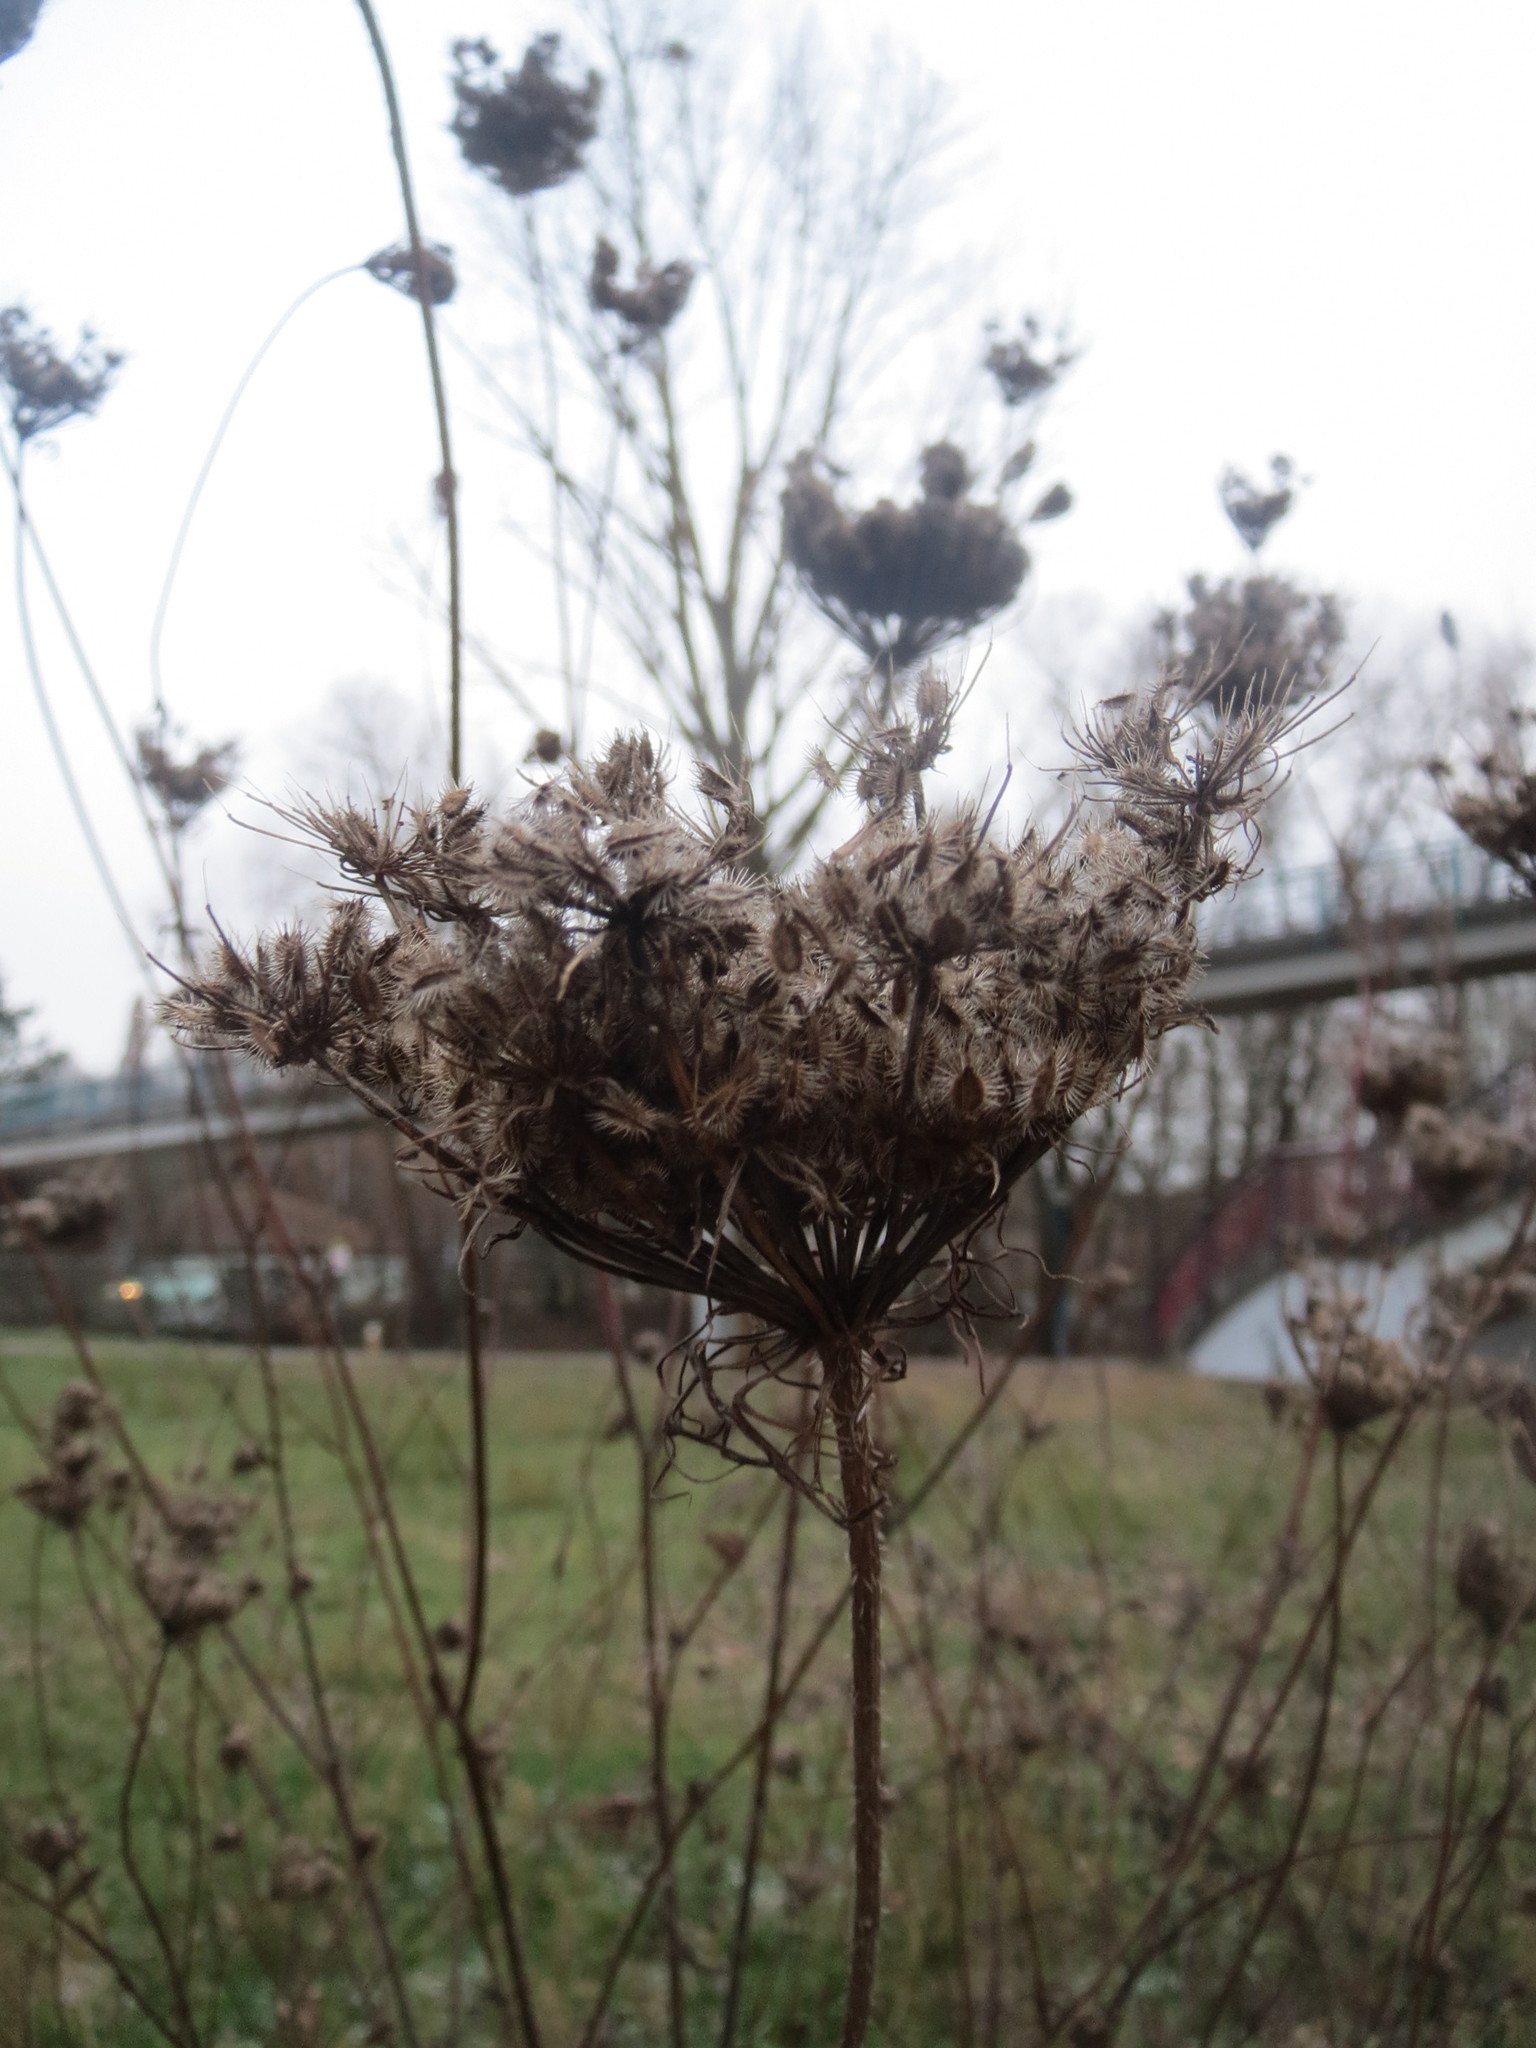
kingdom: Plantae
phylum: Tracheophyta
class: Magnoliopsida
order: Apiales
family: Apiaceae
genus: Daucus
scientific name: Daucus carota
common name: Wild carrot
